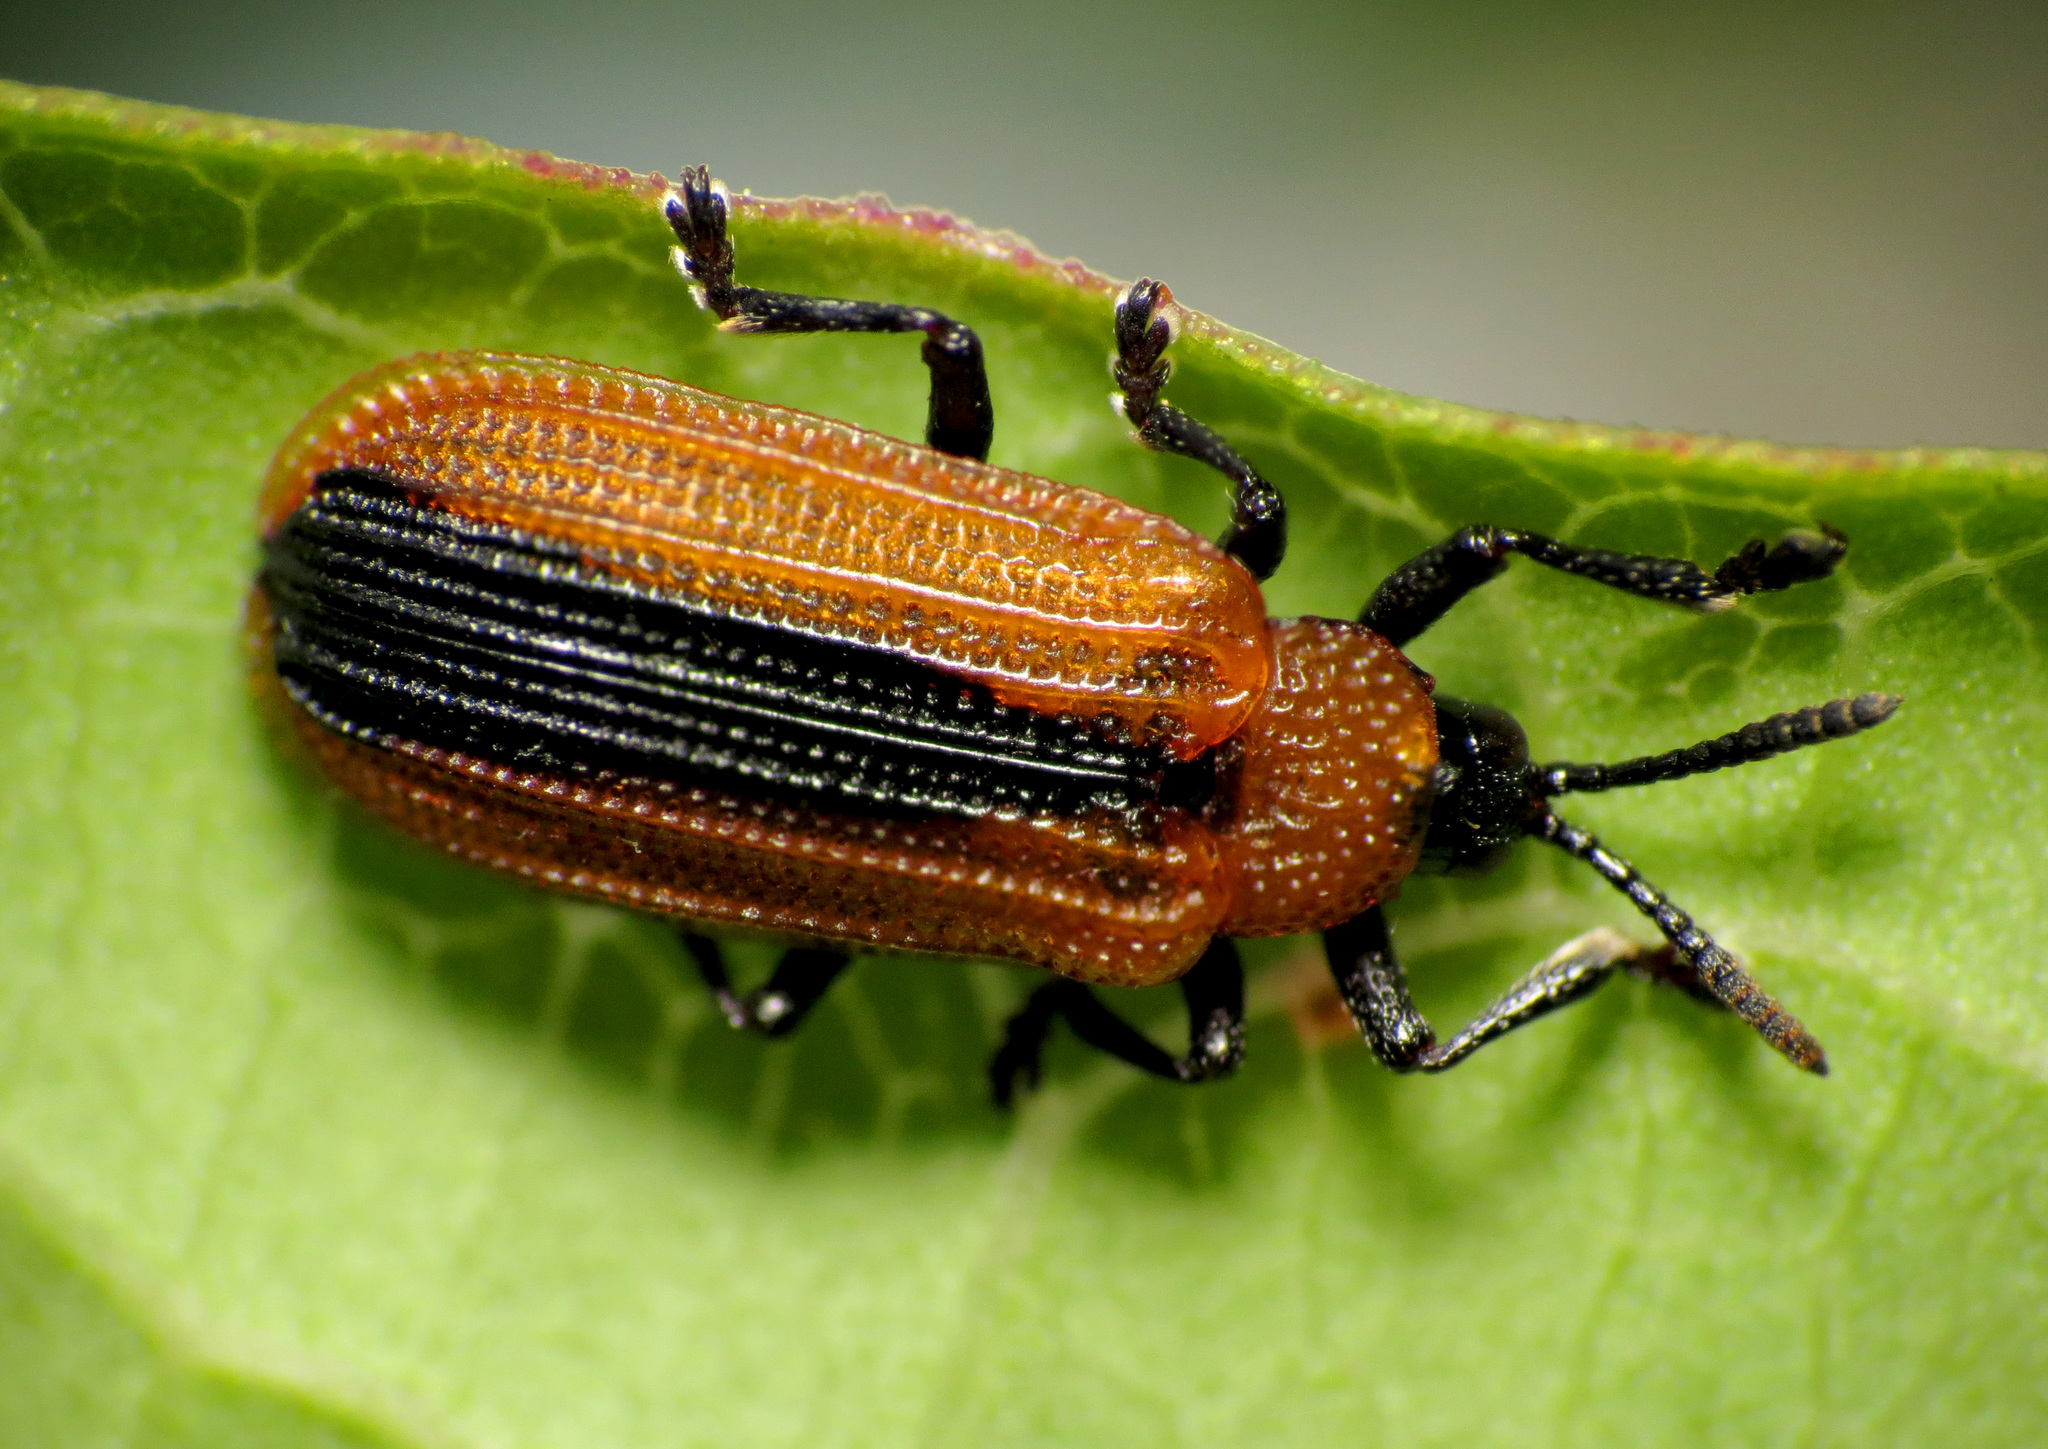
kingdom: Animalia
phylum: Arthropoda
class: Insecta
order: Coleoptera
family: Chrysomelidae
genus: Odontota
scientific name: Odontota dorsalis
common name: Locust leaf-miner beetle
